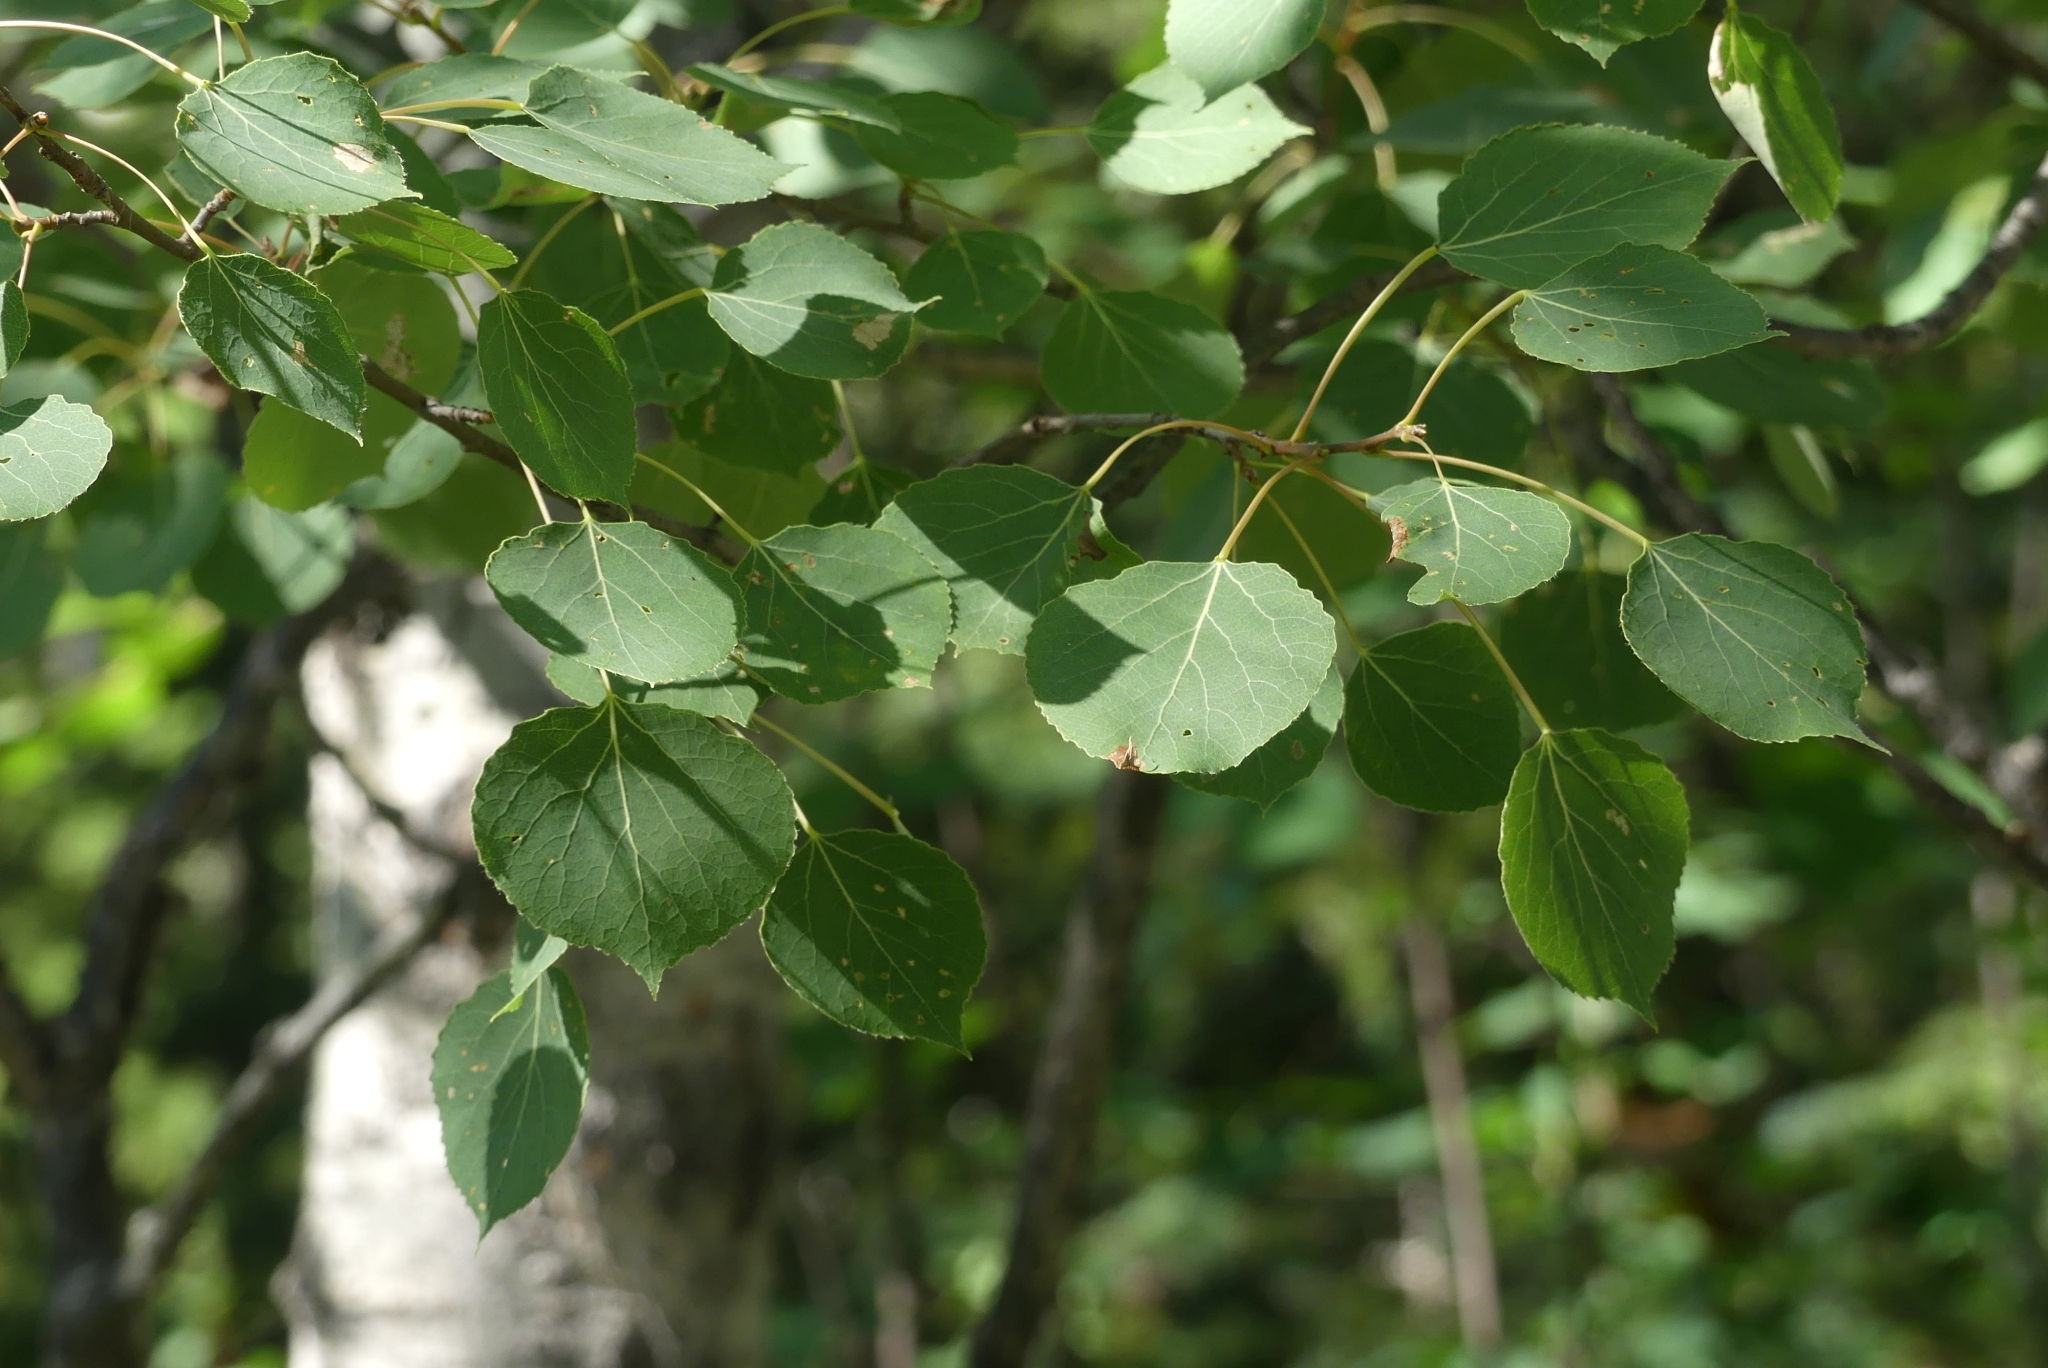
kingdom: Plantae
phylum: Tracheophyta
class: Magnoliopsida
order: Malpighiales
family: Salicaceae
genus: Populus
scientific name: Populus tremuloides
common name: Quaking aspen
